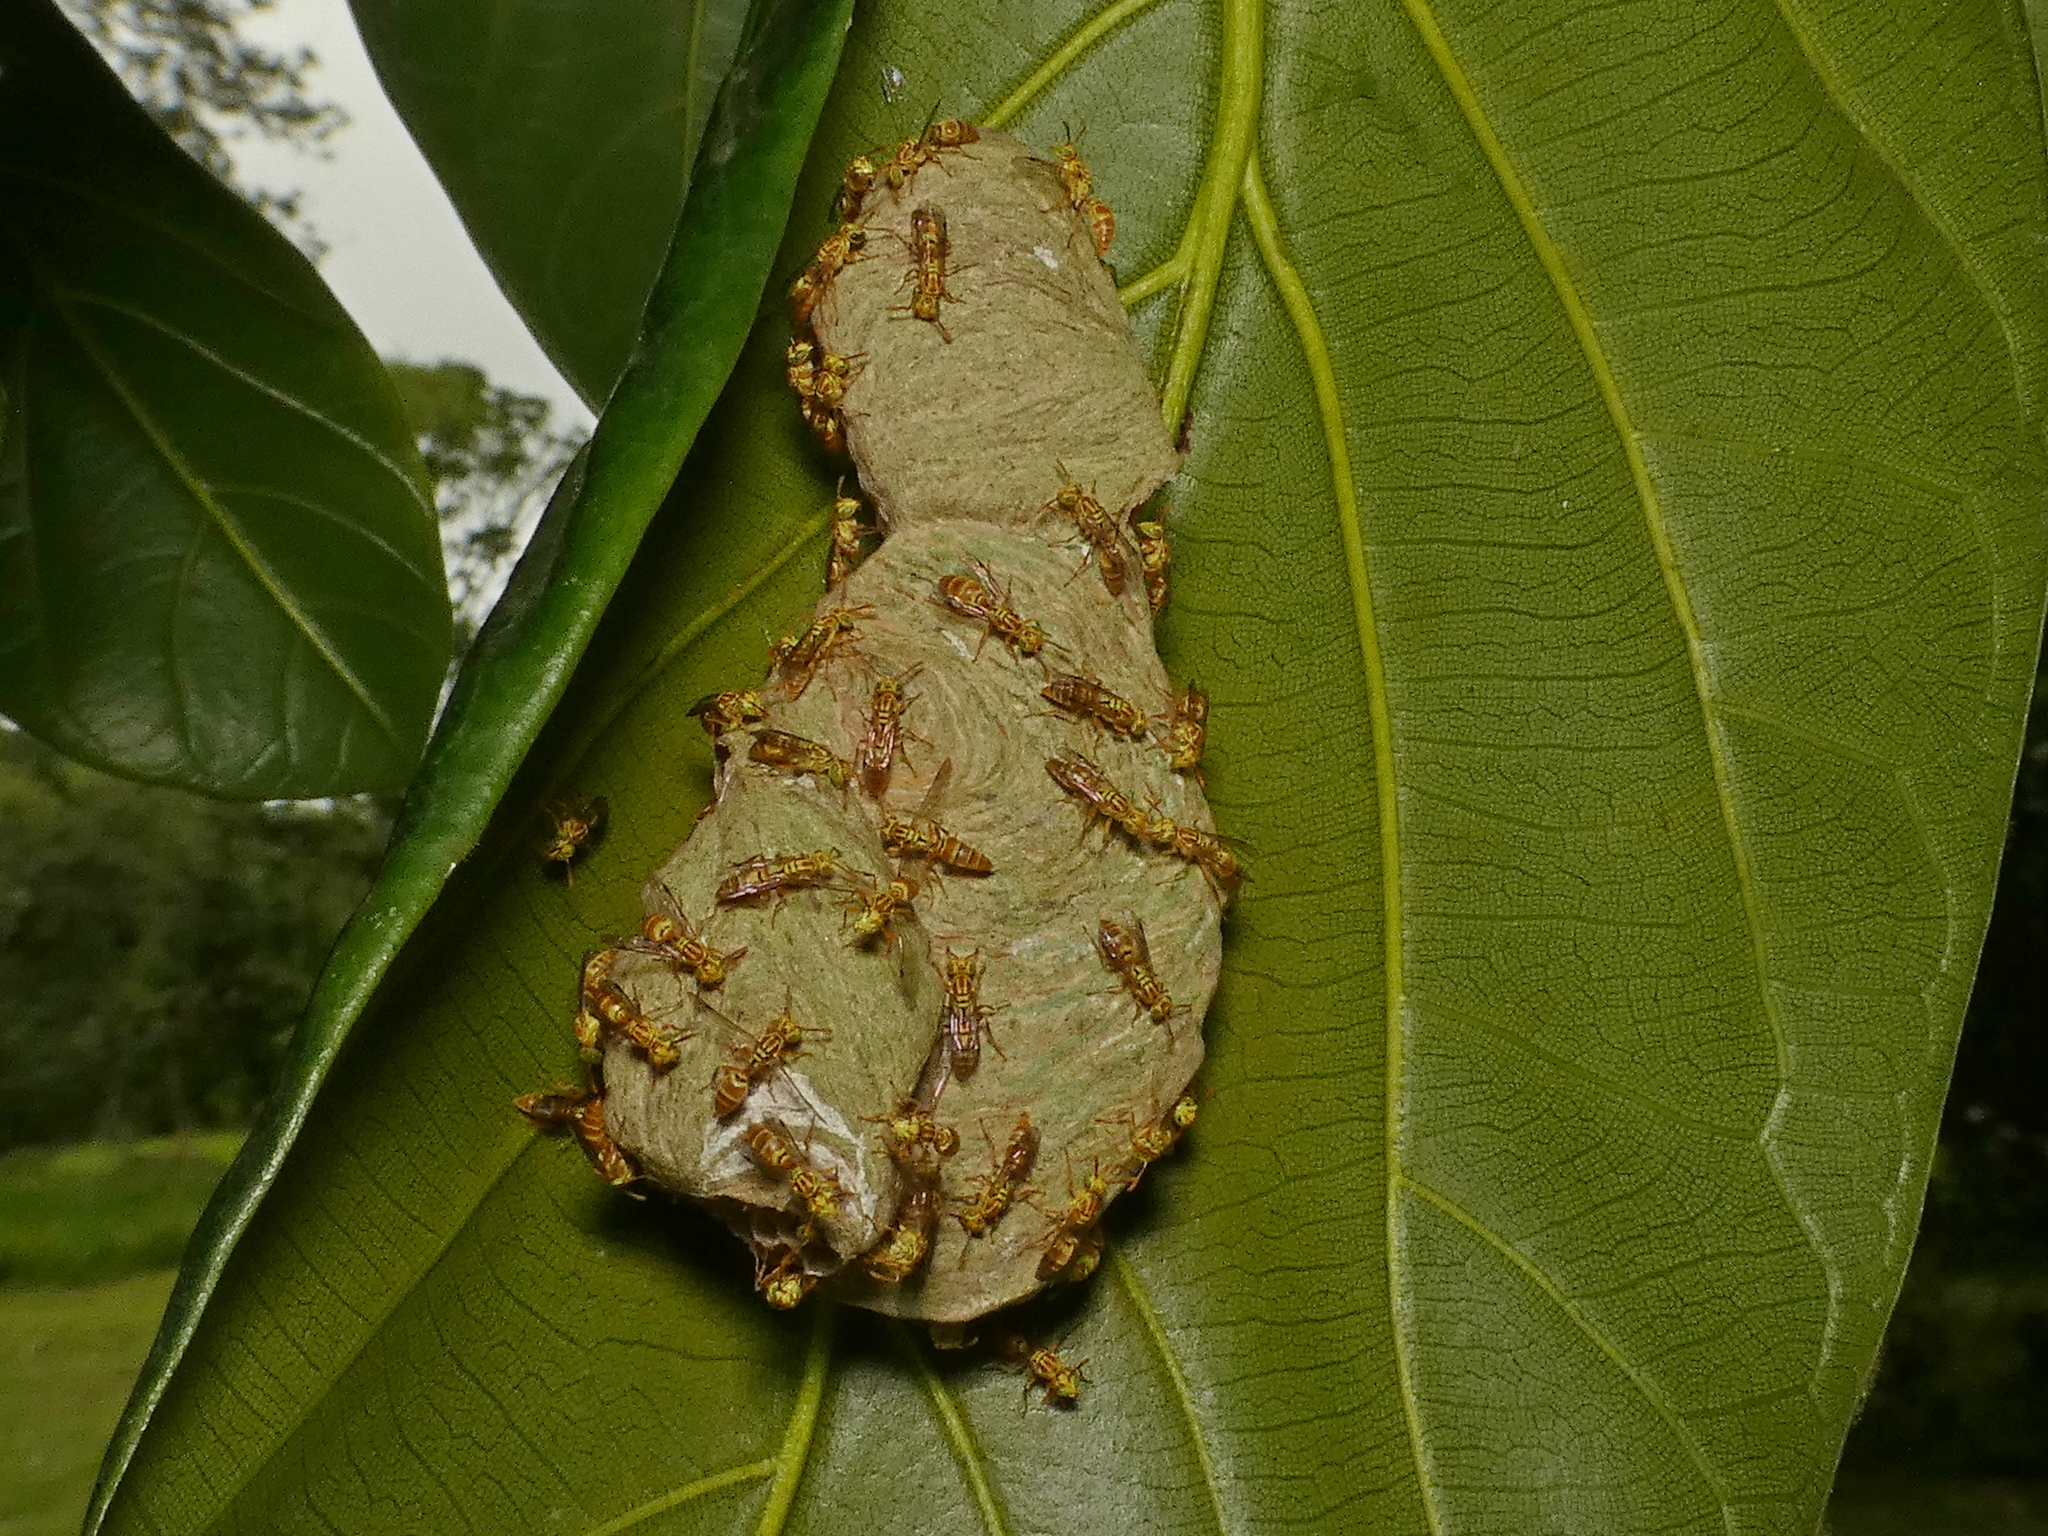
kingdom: Animalia
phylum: Arthropoda
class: Insecta
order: Hymenoptera
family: Vespidae
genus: Protopolybia
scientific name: Protopolybia potiguara
